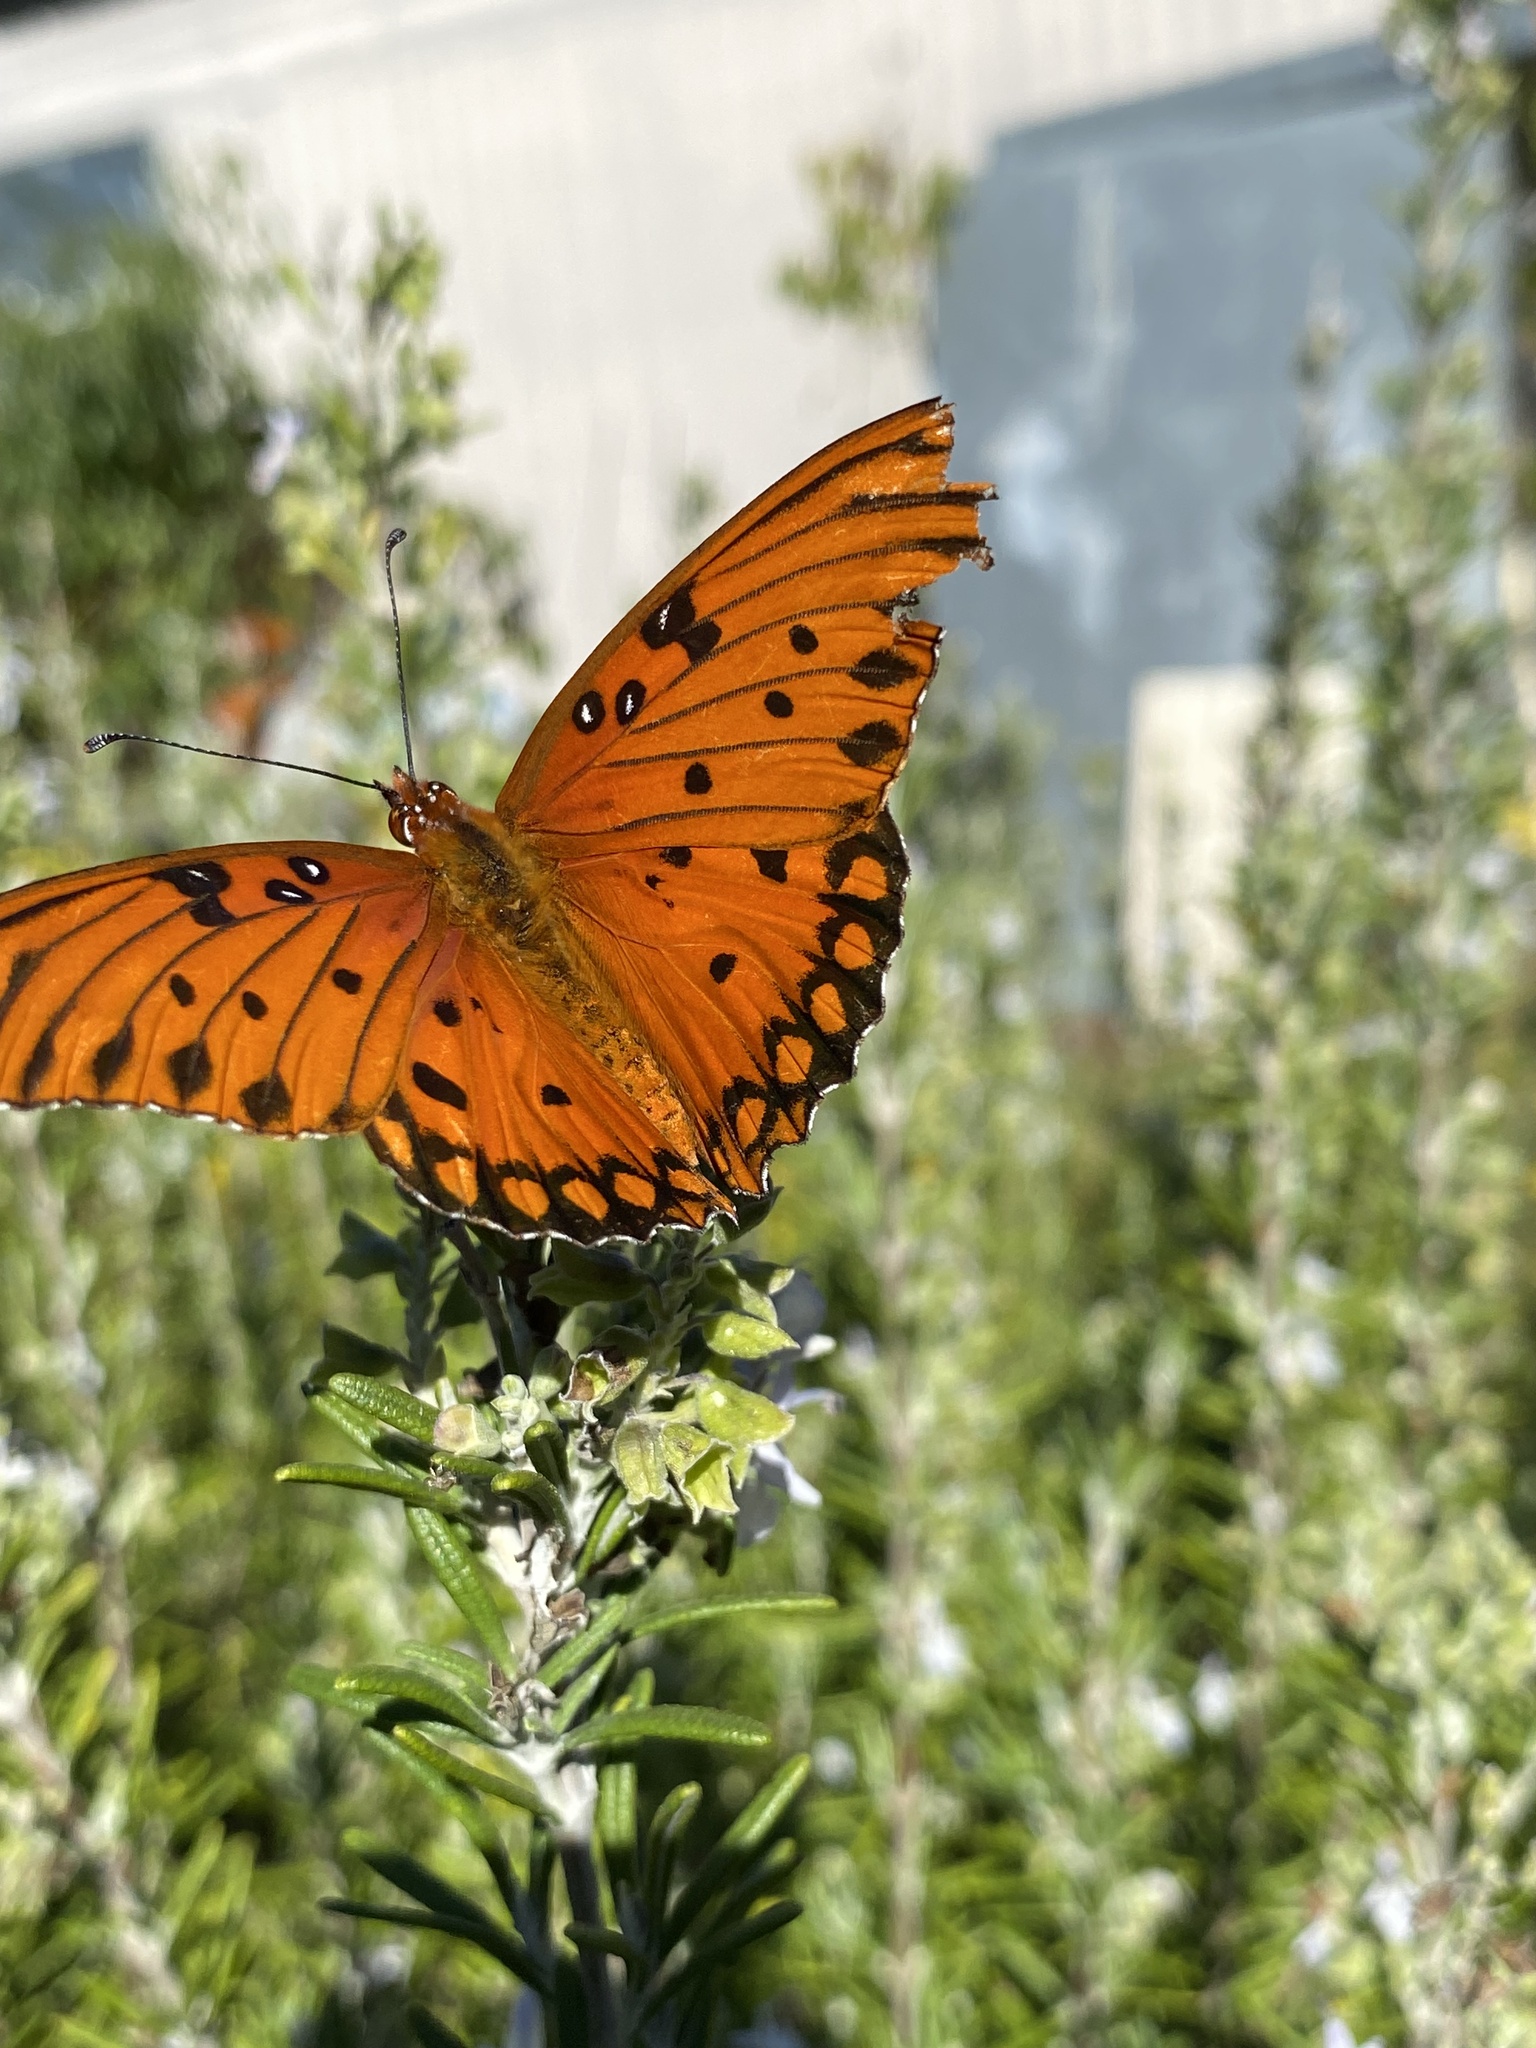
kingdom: Animalia
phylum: Arthropoda
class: Insecta
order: Lepidoptera
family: Nymphalidae
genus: Dione
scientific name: Dione vanillae
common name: Gulf fritillary
